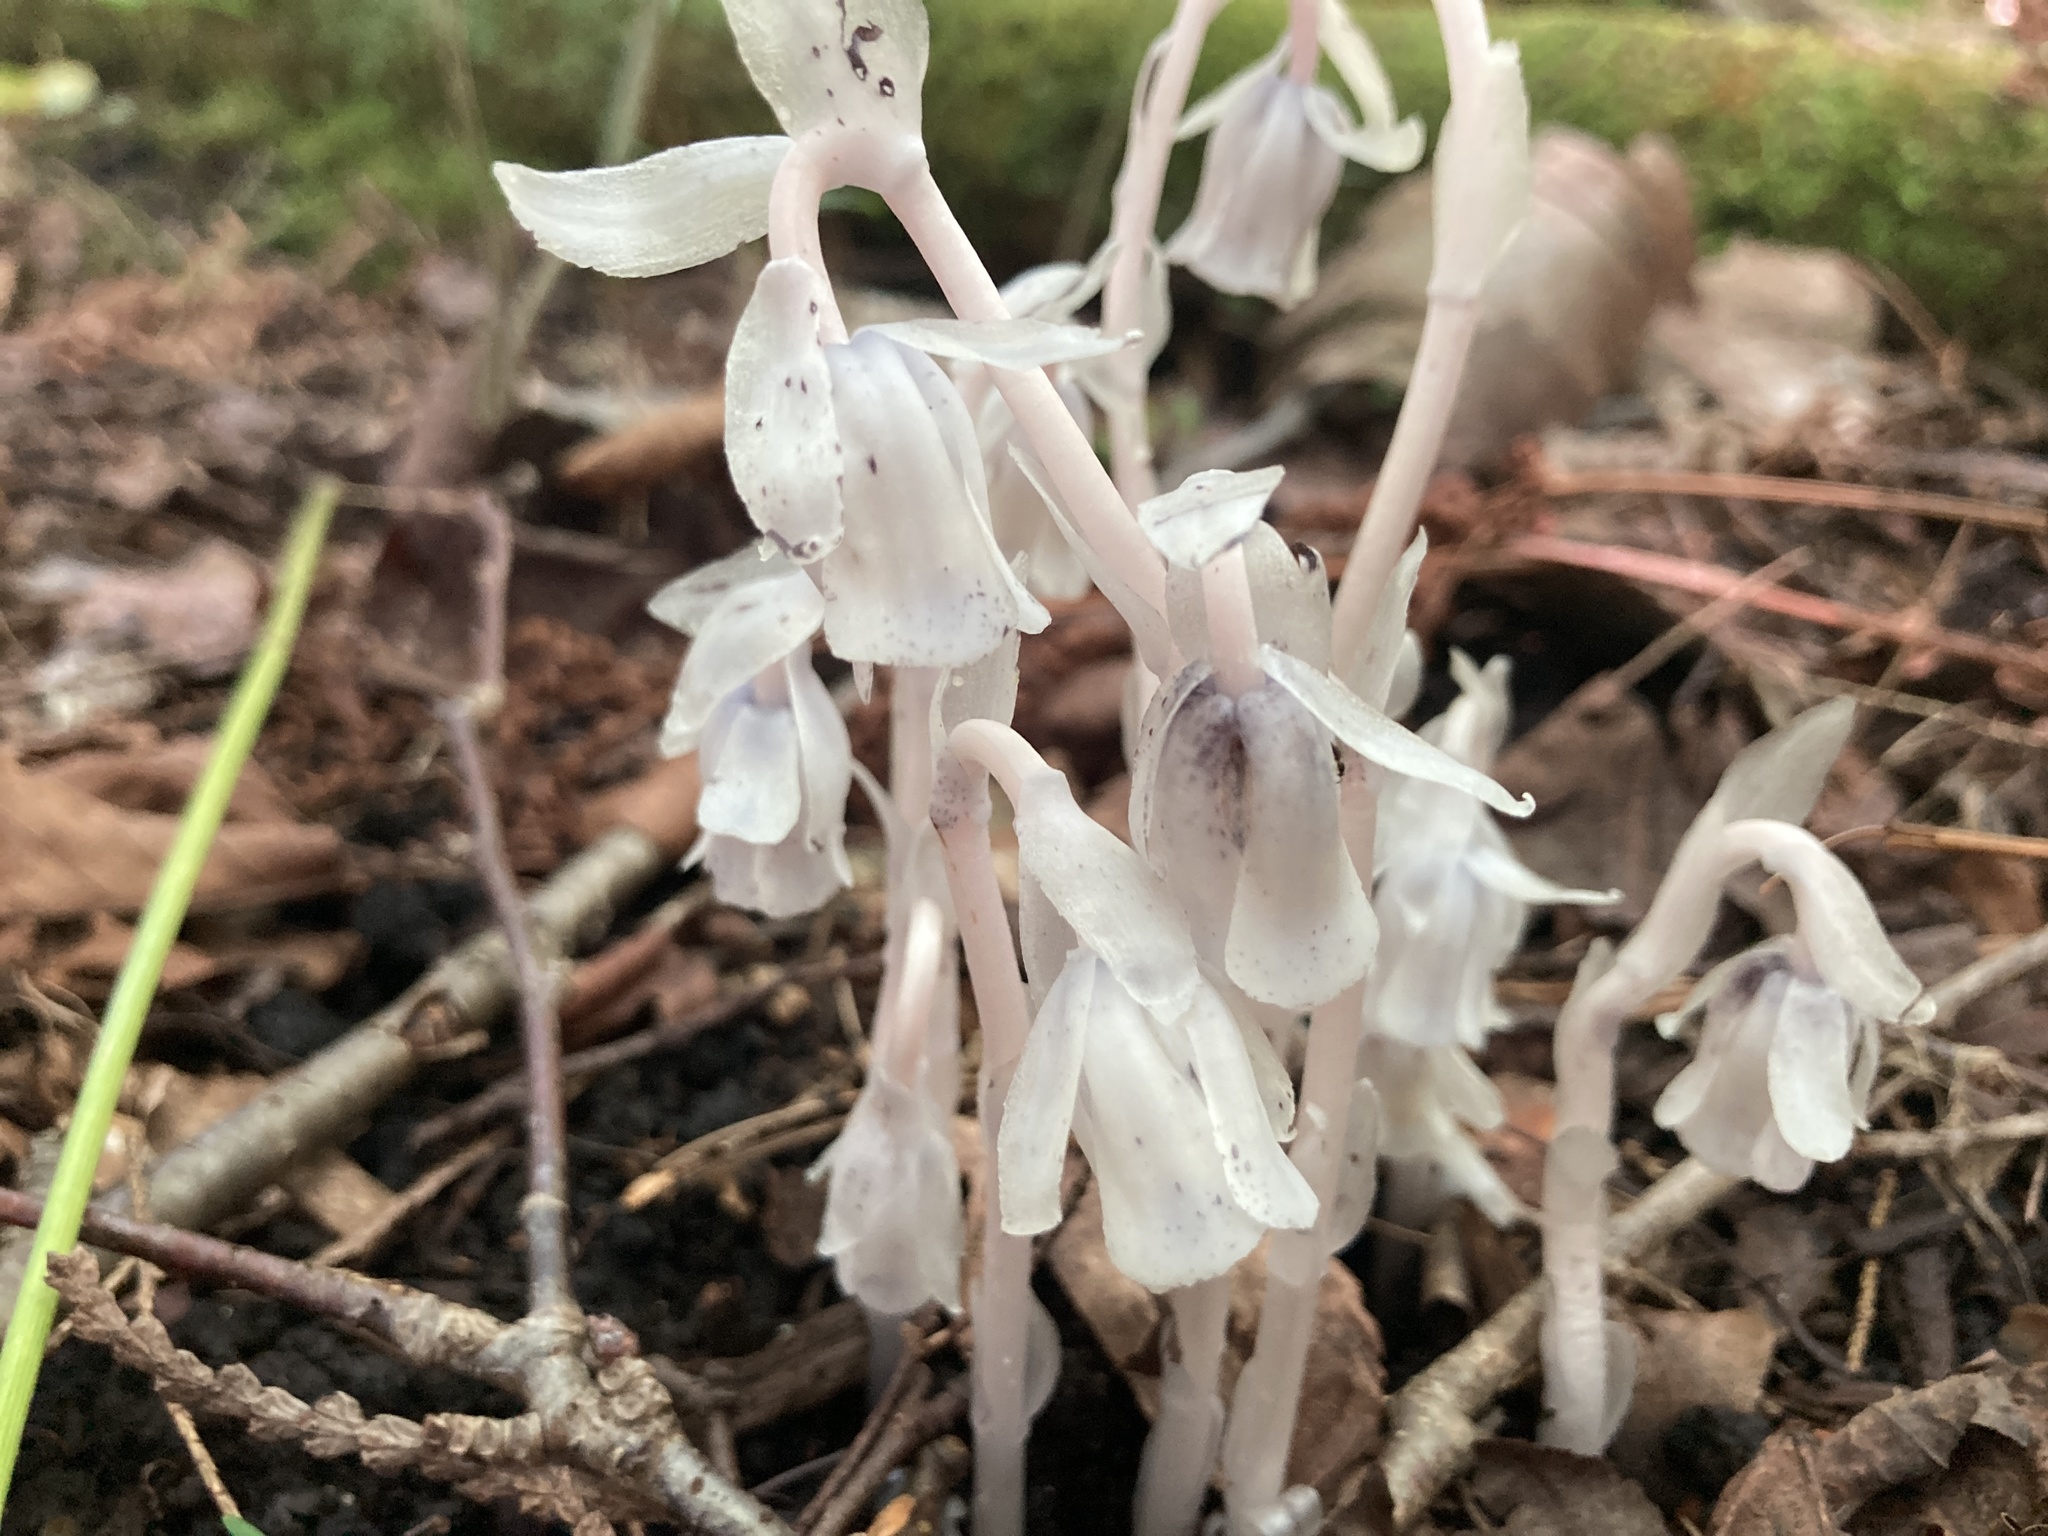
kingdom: Plantae
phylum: Tracheophyta
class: Magnoliopsida
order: Ericales
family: Ericaceae
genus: Monotropa
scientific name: Monotropa uniflora
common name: Convulsion root
